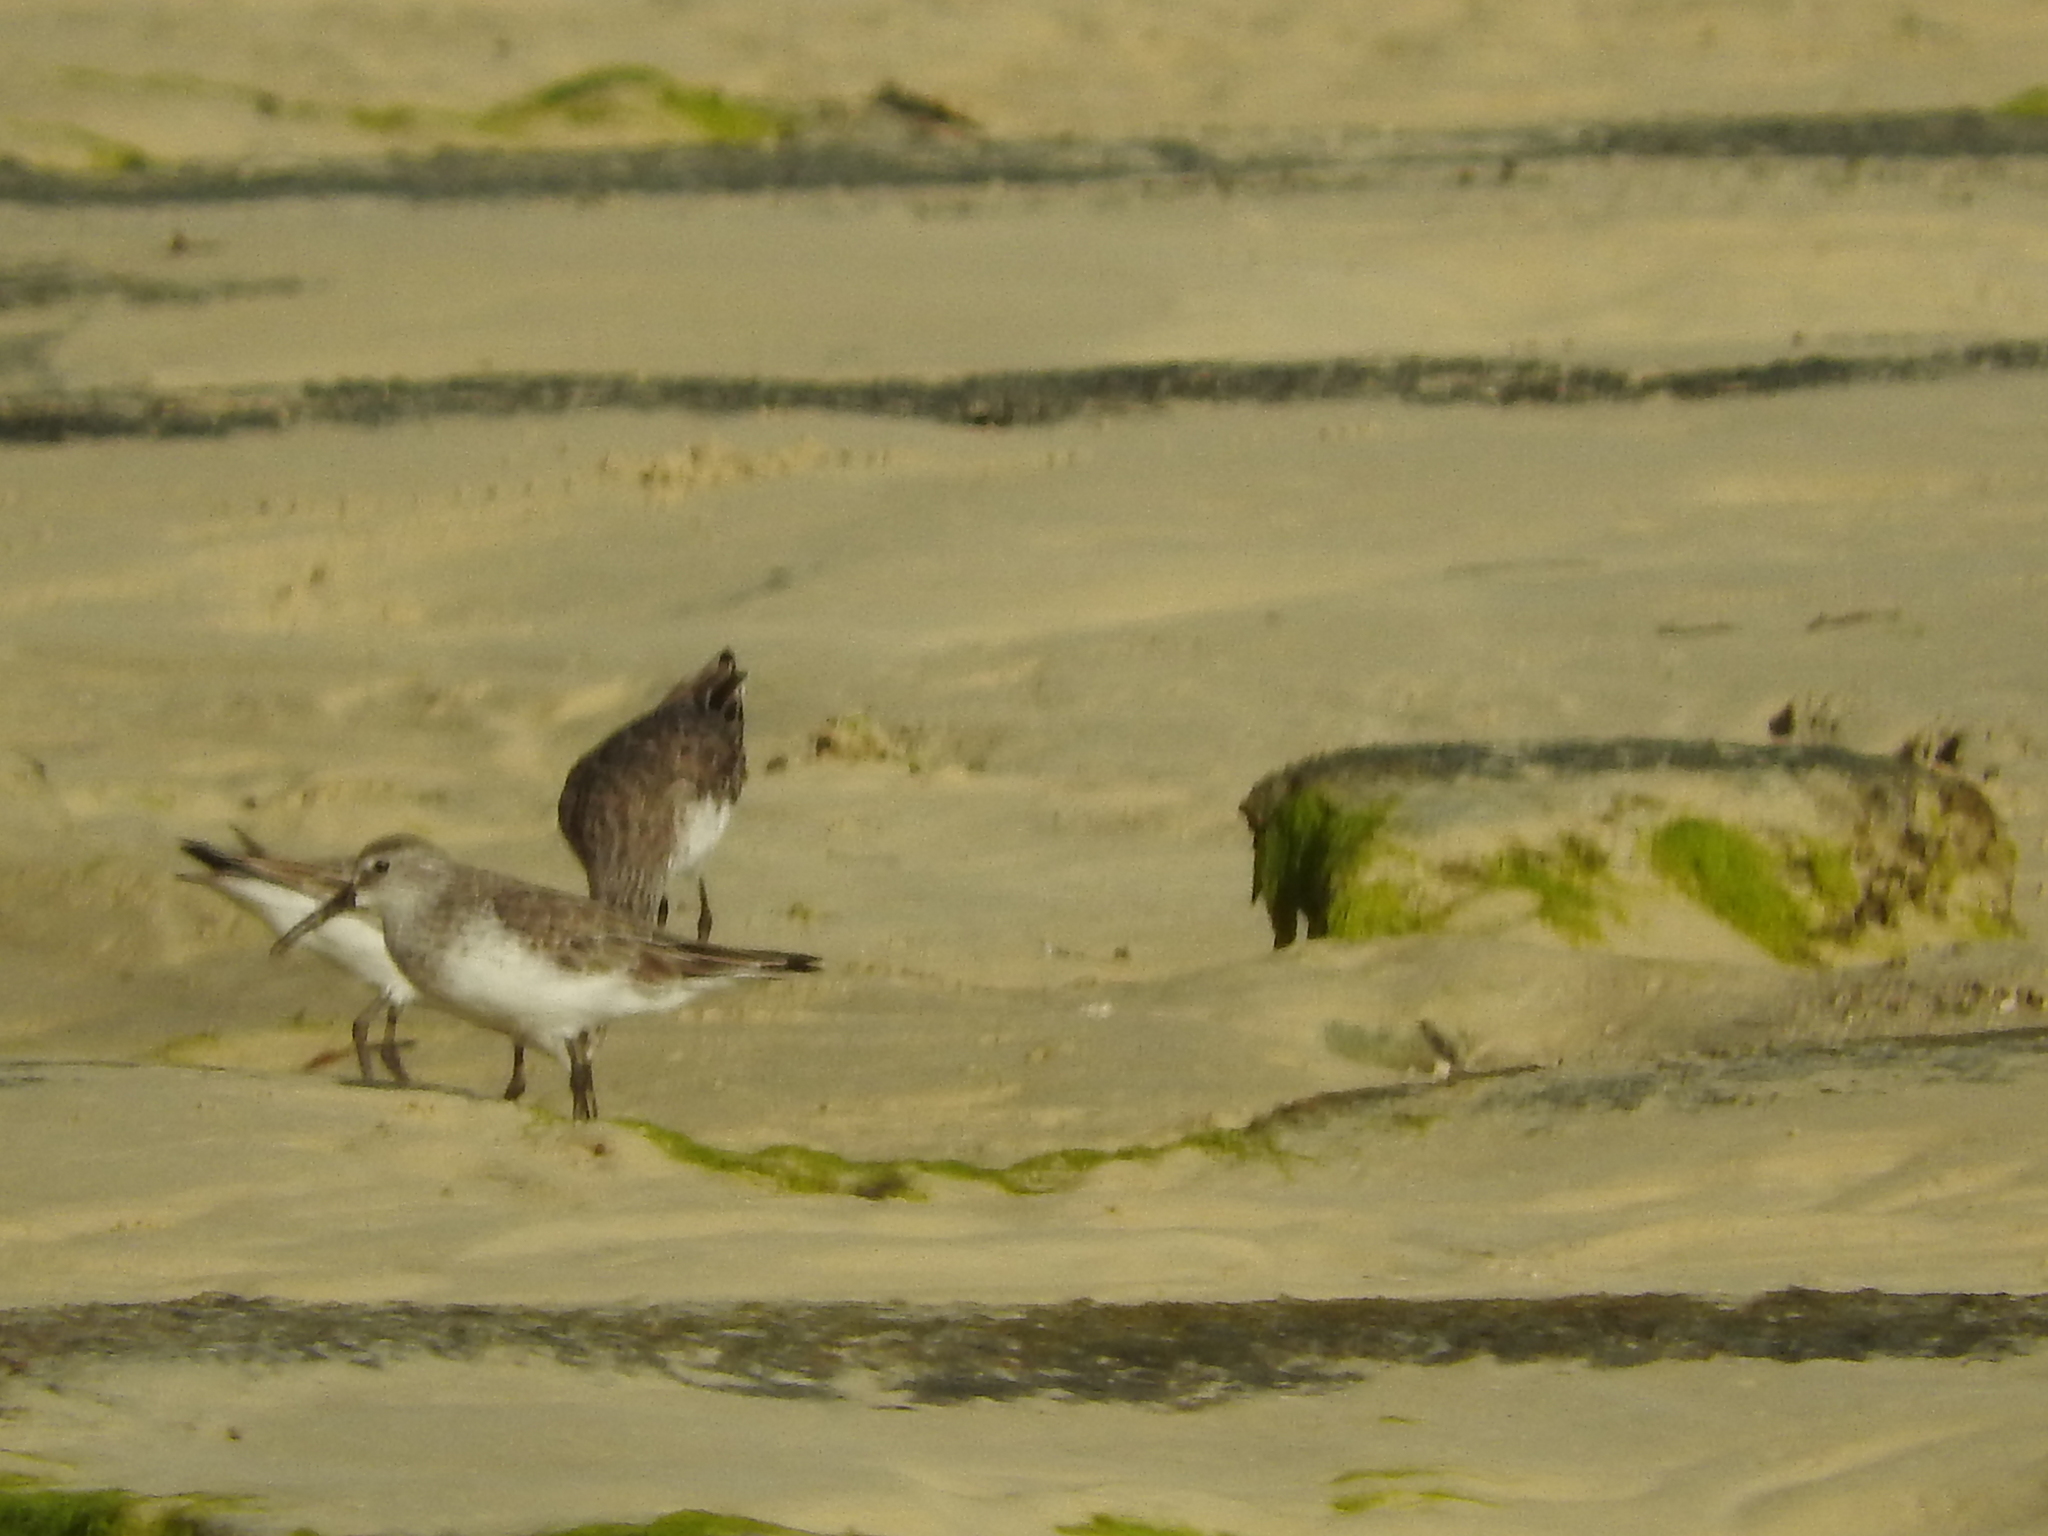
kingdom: Animalia
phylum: Chordata
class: Aves
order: Charadriiformes
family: Scolopacidae
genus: Calidris
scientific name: Calidris ferruginea
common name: Curlew sandpiper
